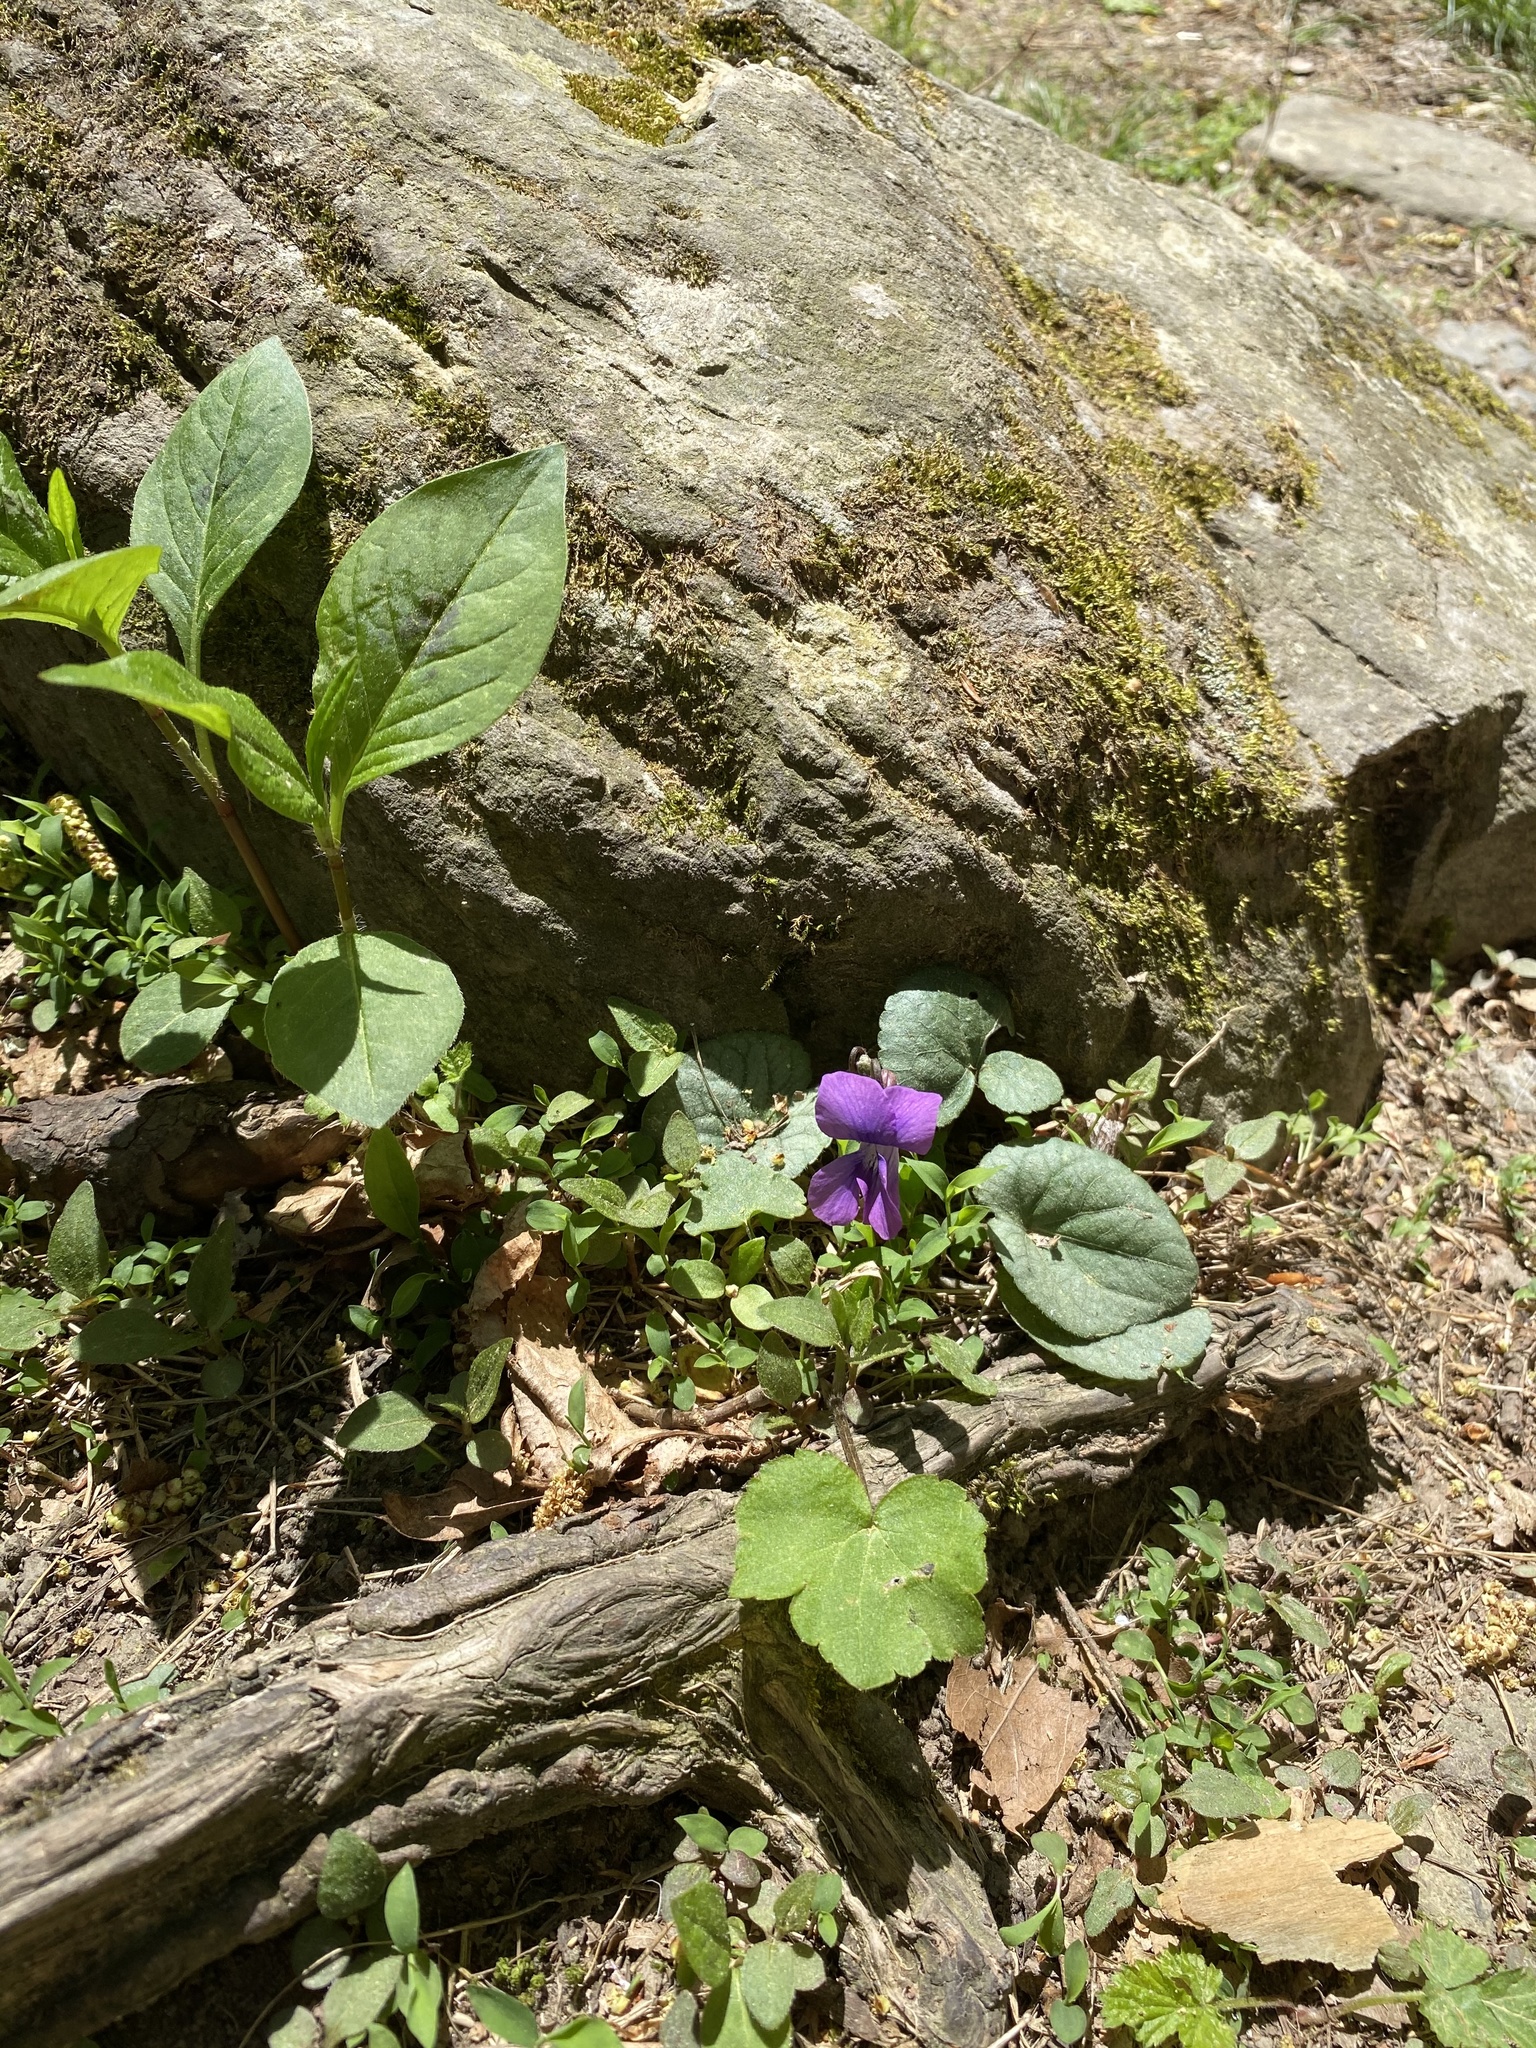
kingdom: Plantae
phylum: Tracheophyta
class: Magnoliopsida
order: Malpighiales
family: Violaceae
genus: Viola
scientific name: Viola hirsutula
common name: Southern wood violet
